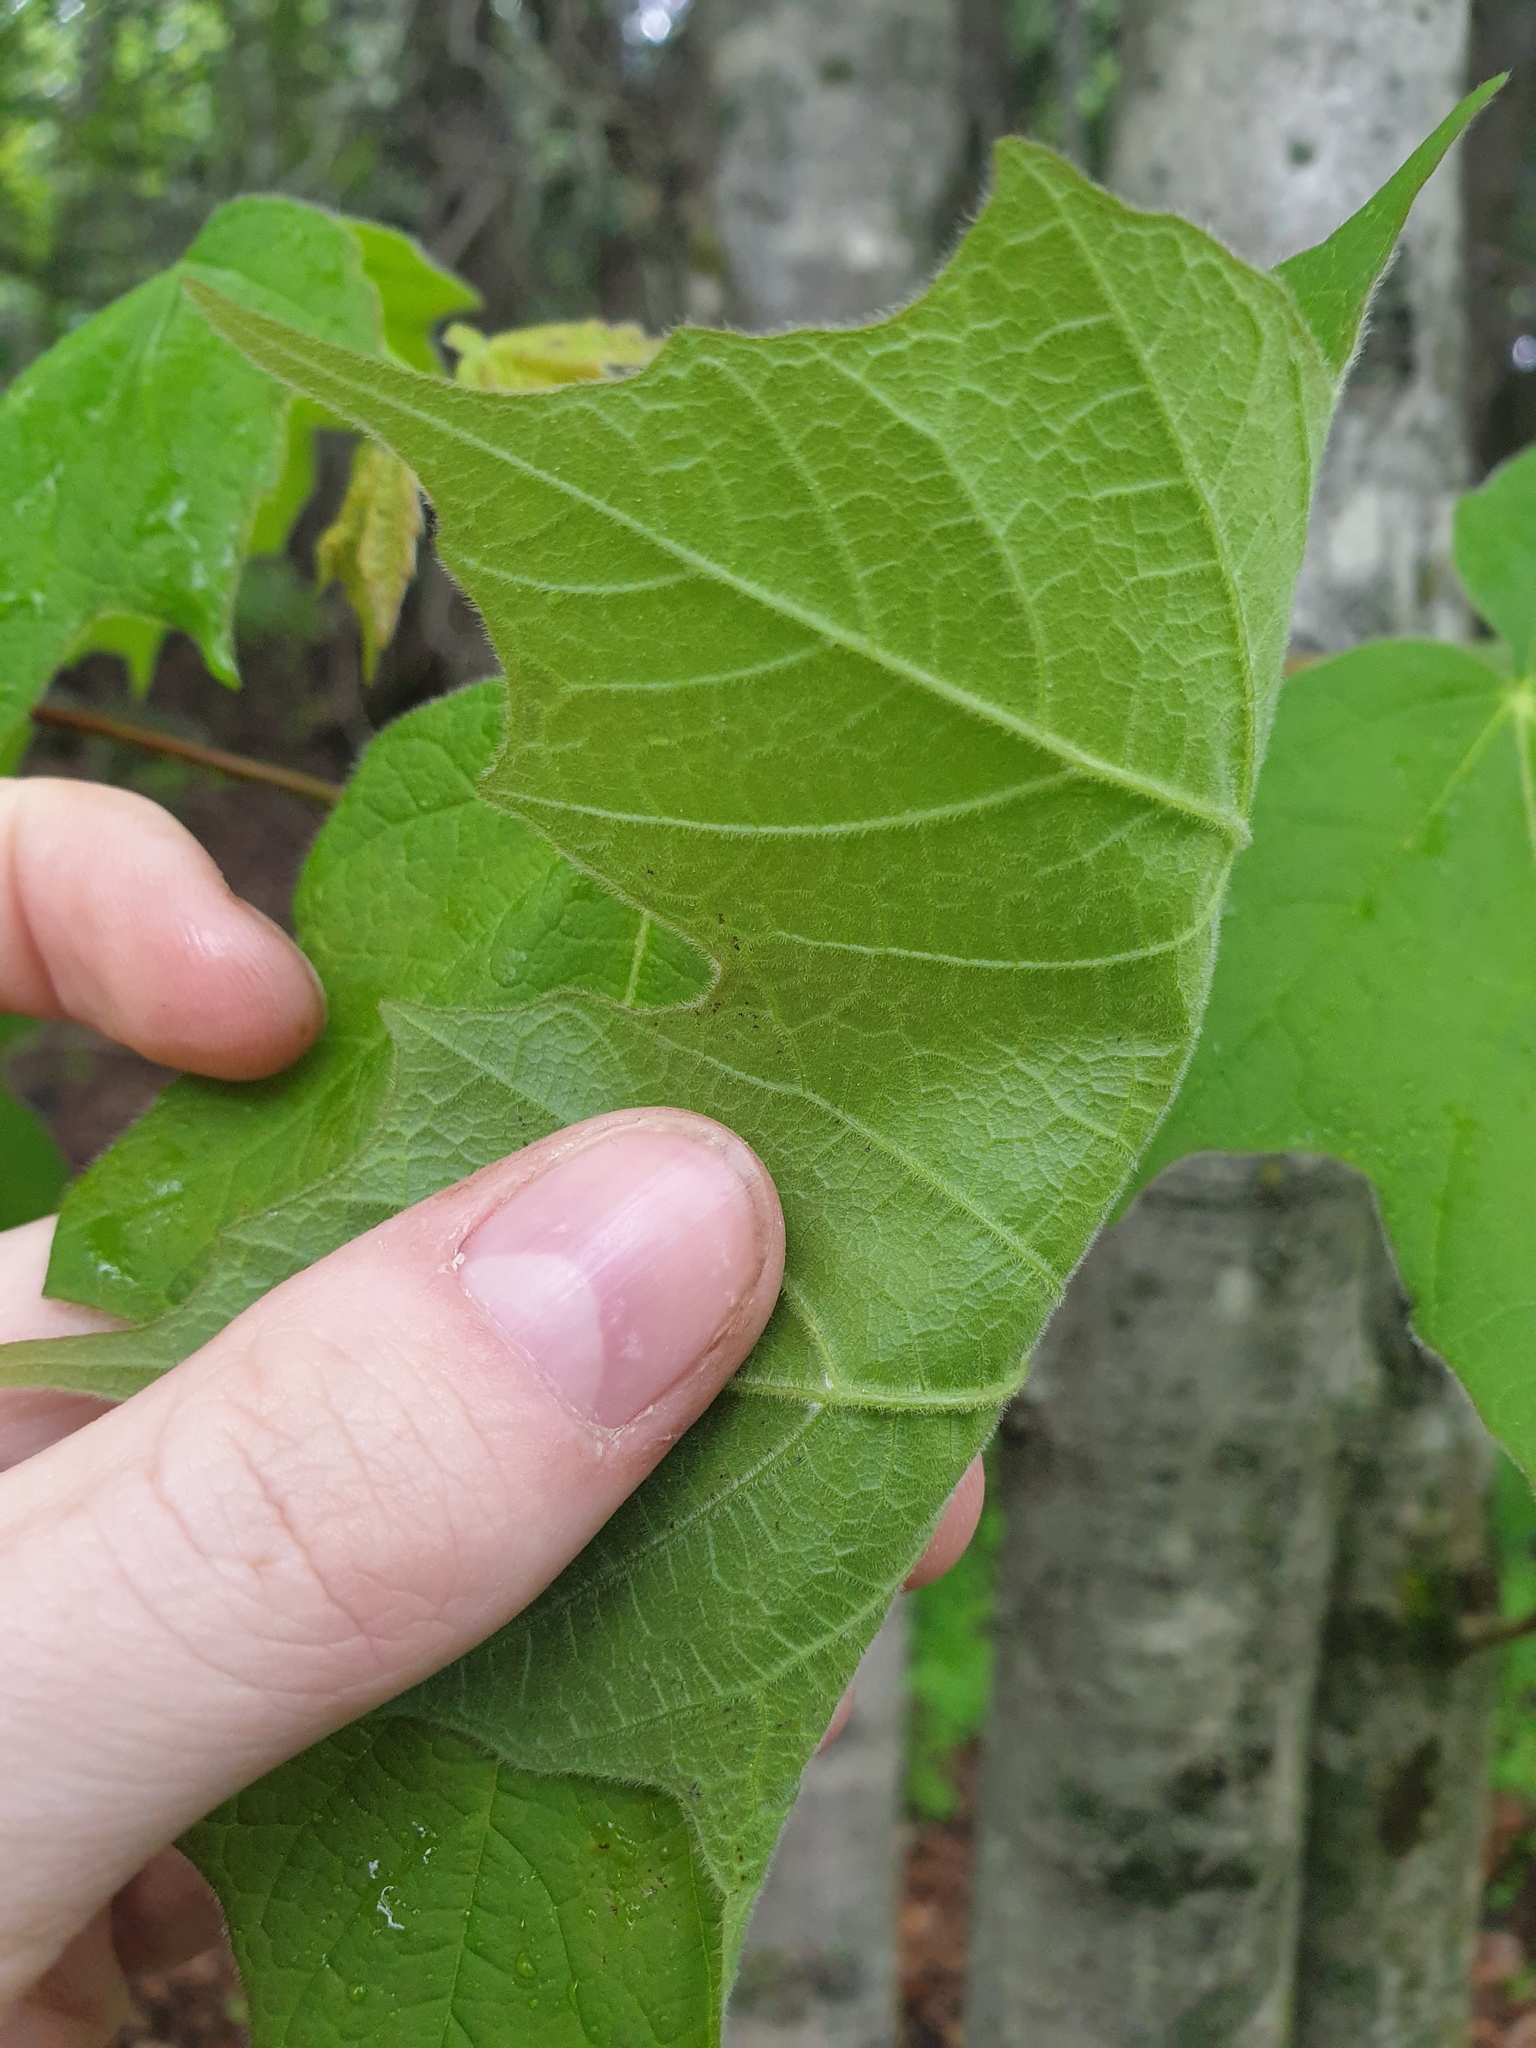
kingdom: Plantae
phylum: Tracheophyta
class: Magnoliopsida
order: Sapindales
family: Sapindaceae
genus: Acer
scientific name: Acer nigrum
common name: Black maple
